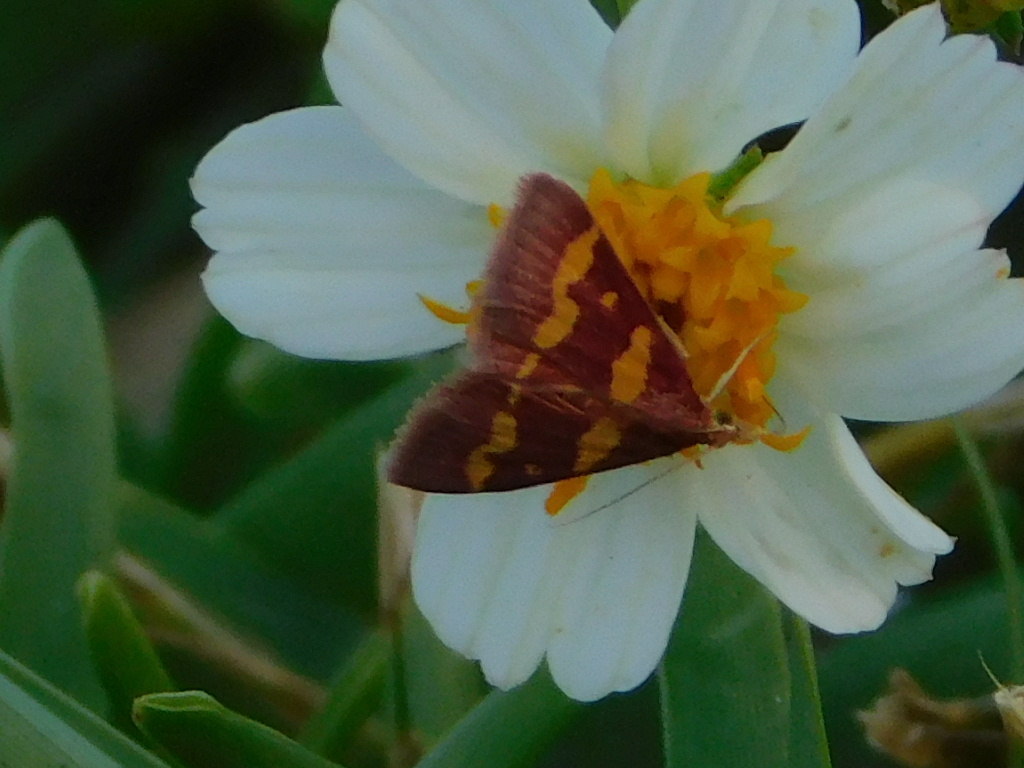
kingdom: Plantae
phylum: Tracheophyta
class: Magnoliopsida
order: Asterales
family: Asteraceae
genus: Bidens
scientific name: Bidens alba
